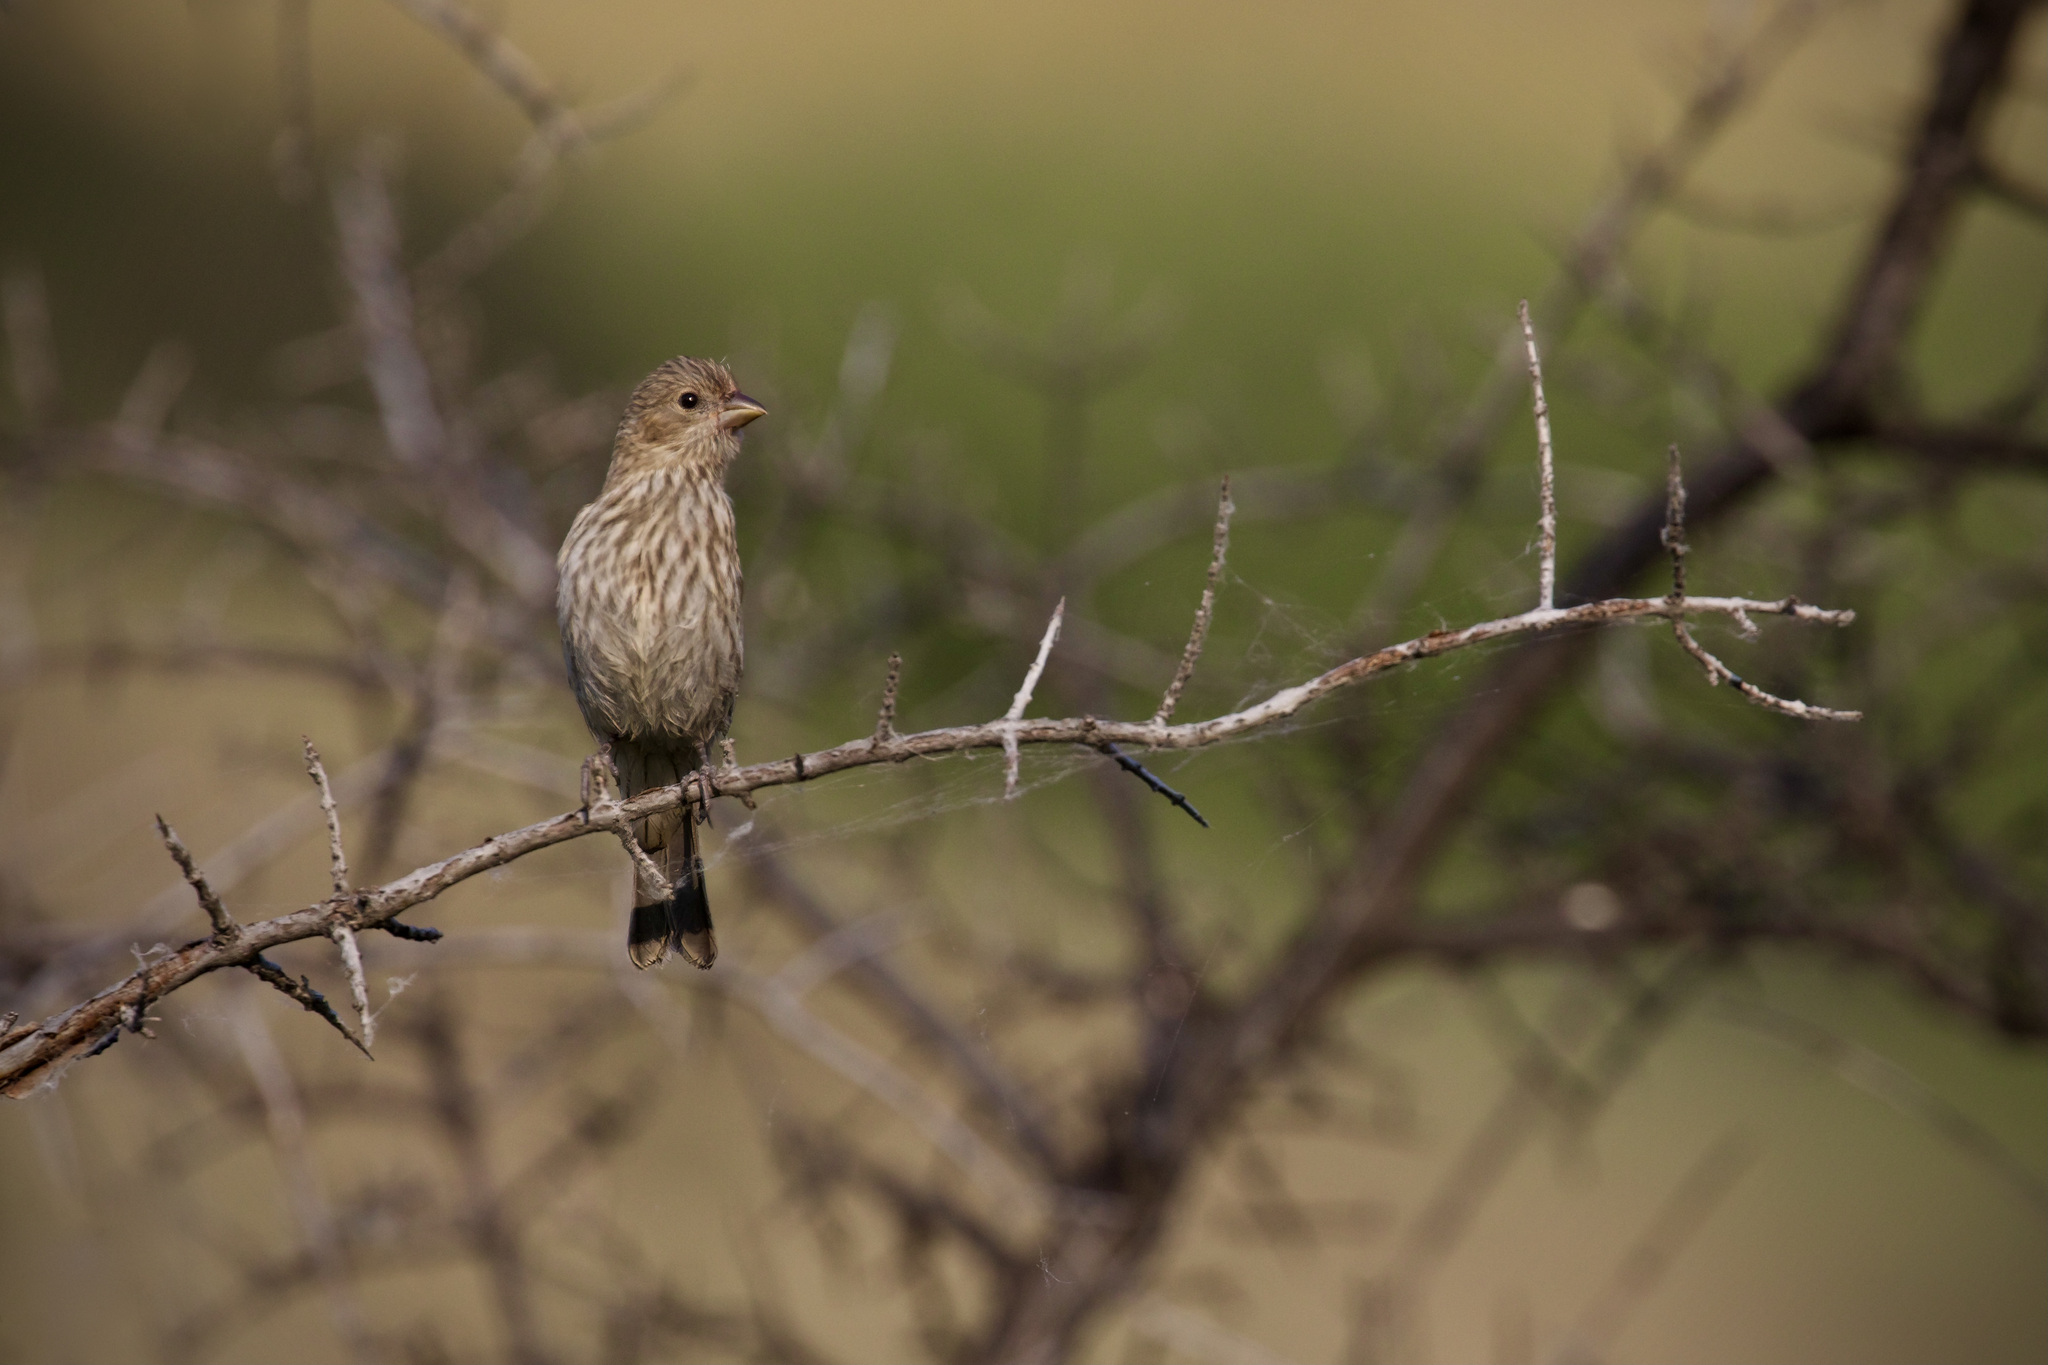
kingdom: Animalia
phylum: Chordata
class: Aves
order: Passeriformes
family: Fringillidae
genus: Haemorhous
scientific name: Haemorhous mexicanus
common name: House finch
